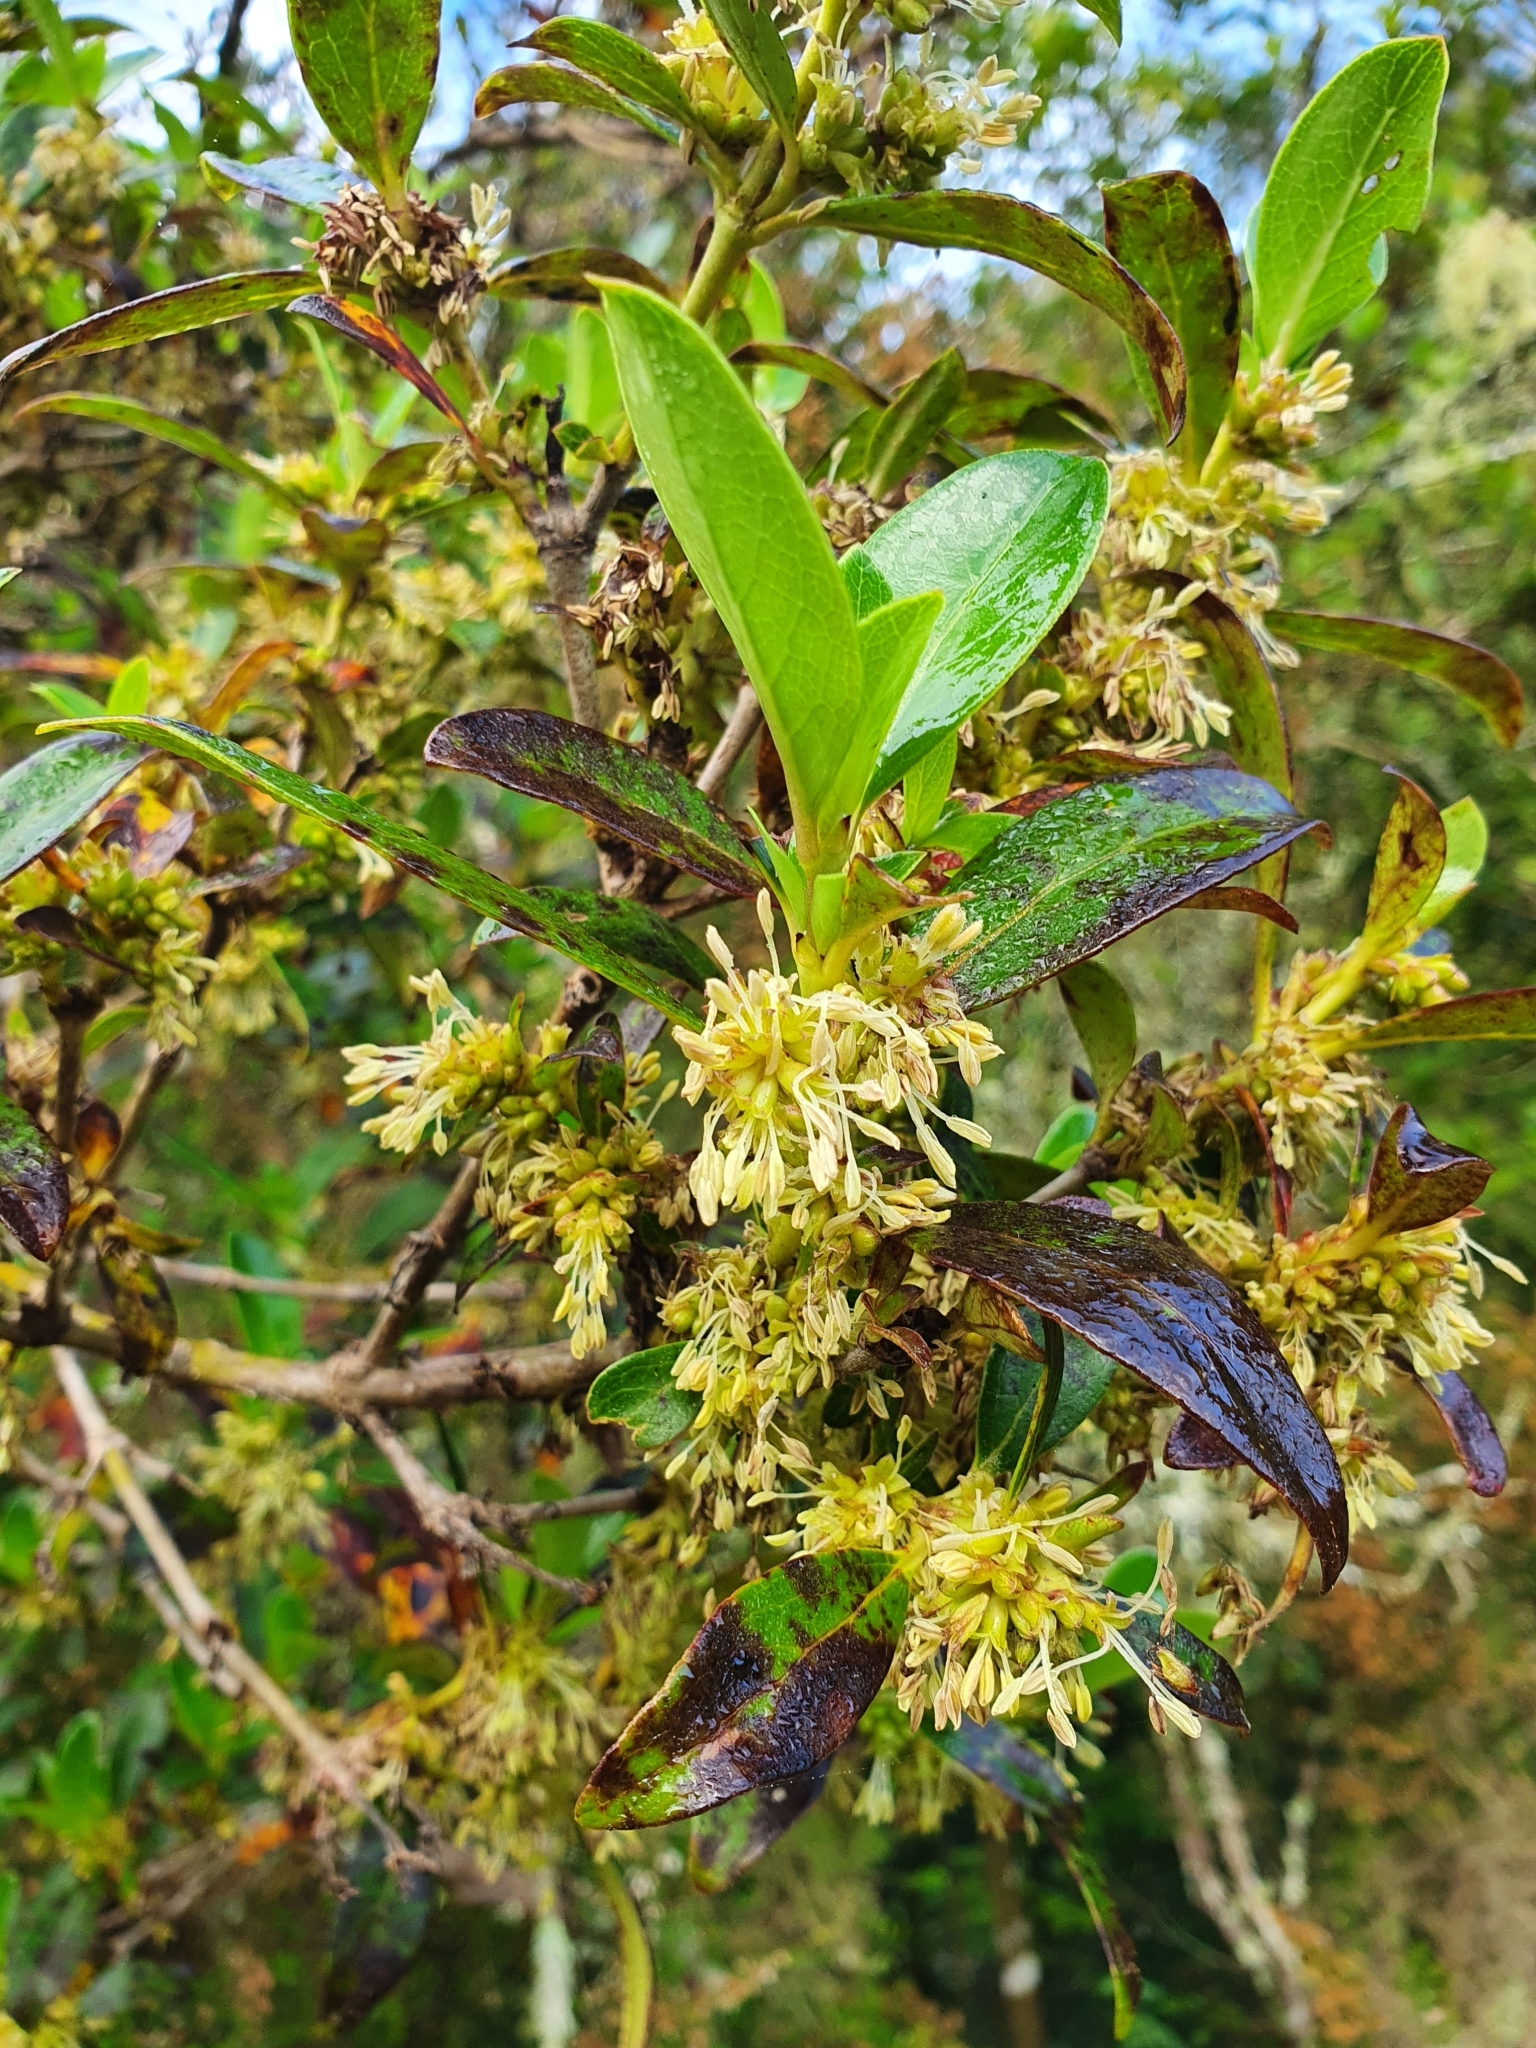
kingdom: Plantae
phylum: Tracheophyta
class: Magnoliopsida
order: Gentianales
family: Rubiaceae
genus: Coprosma
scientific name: Coprosma robusta
